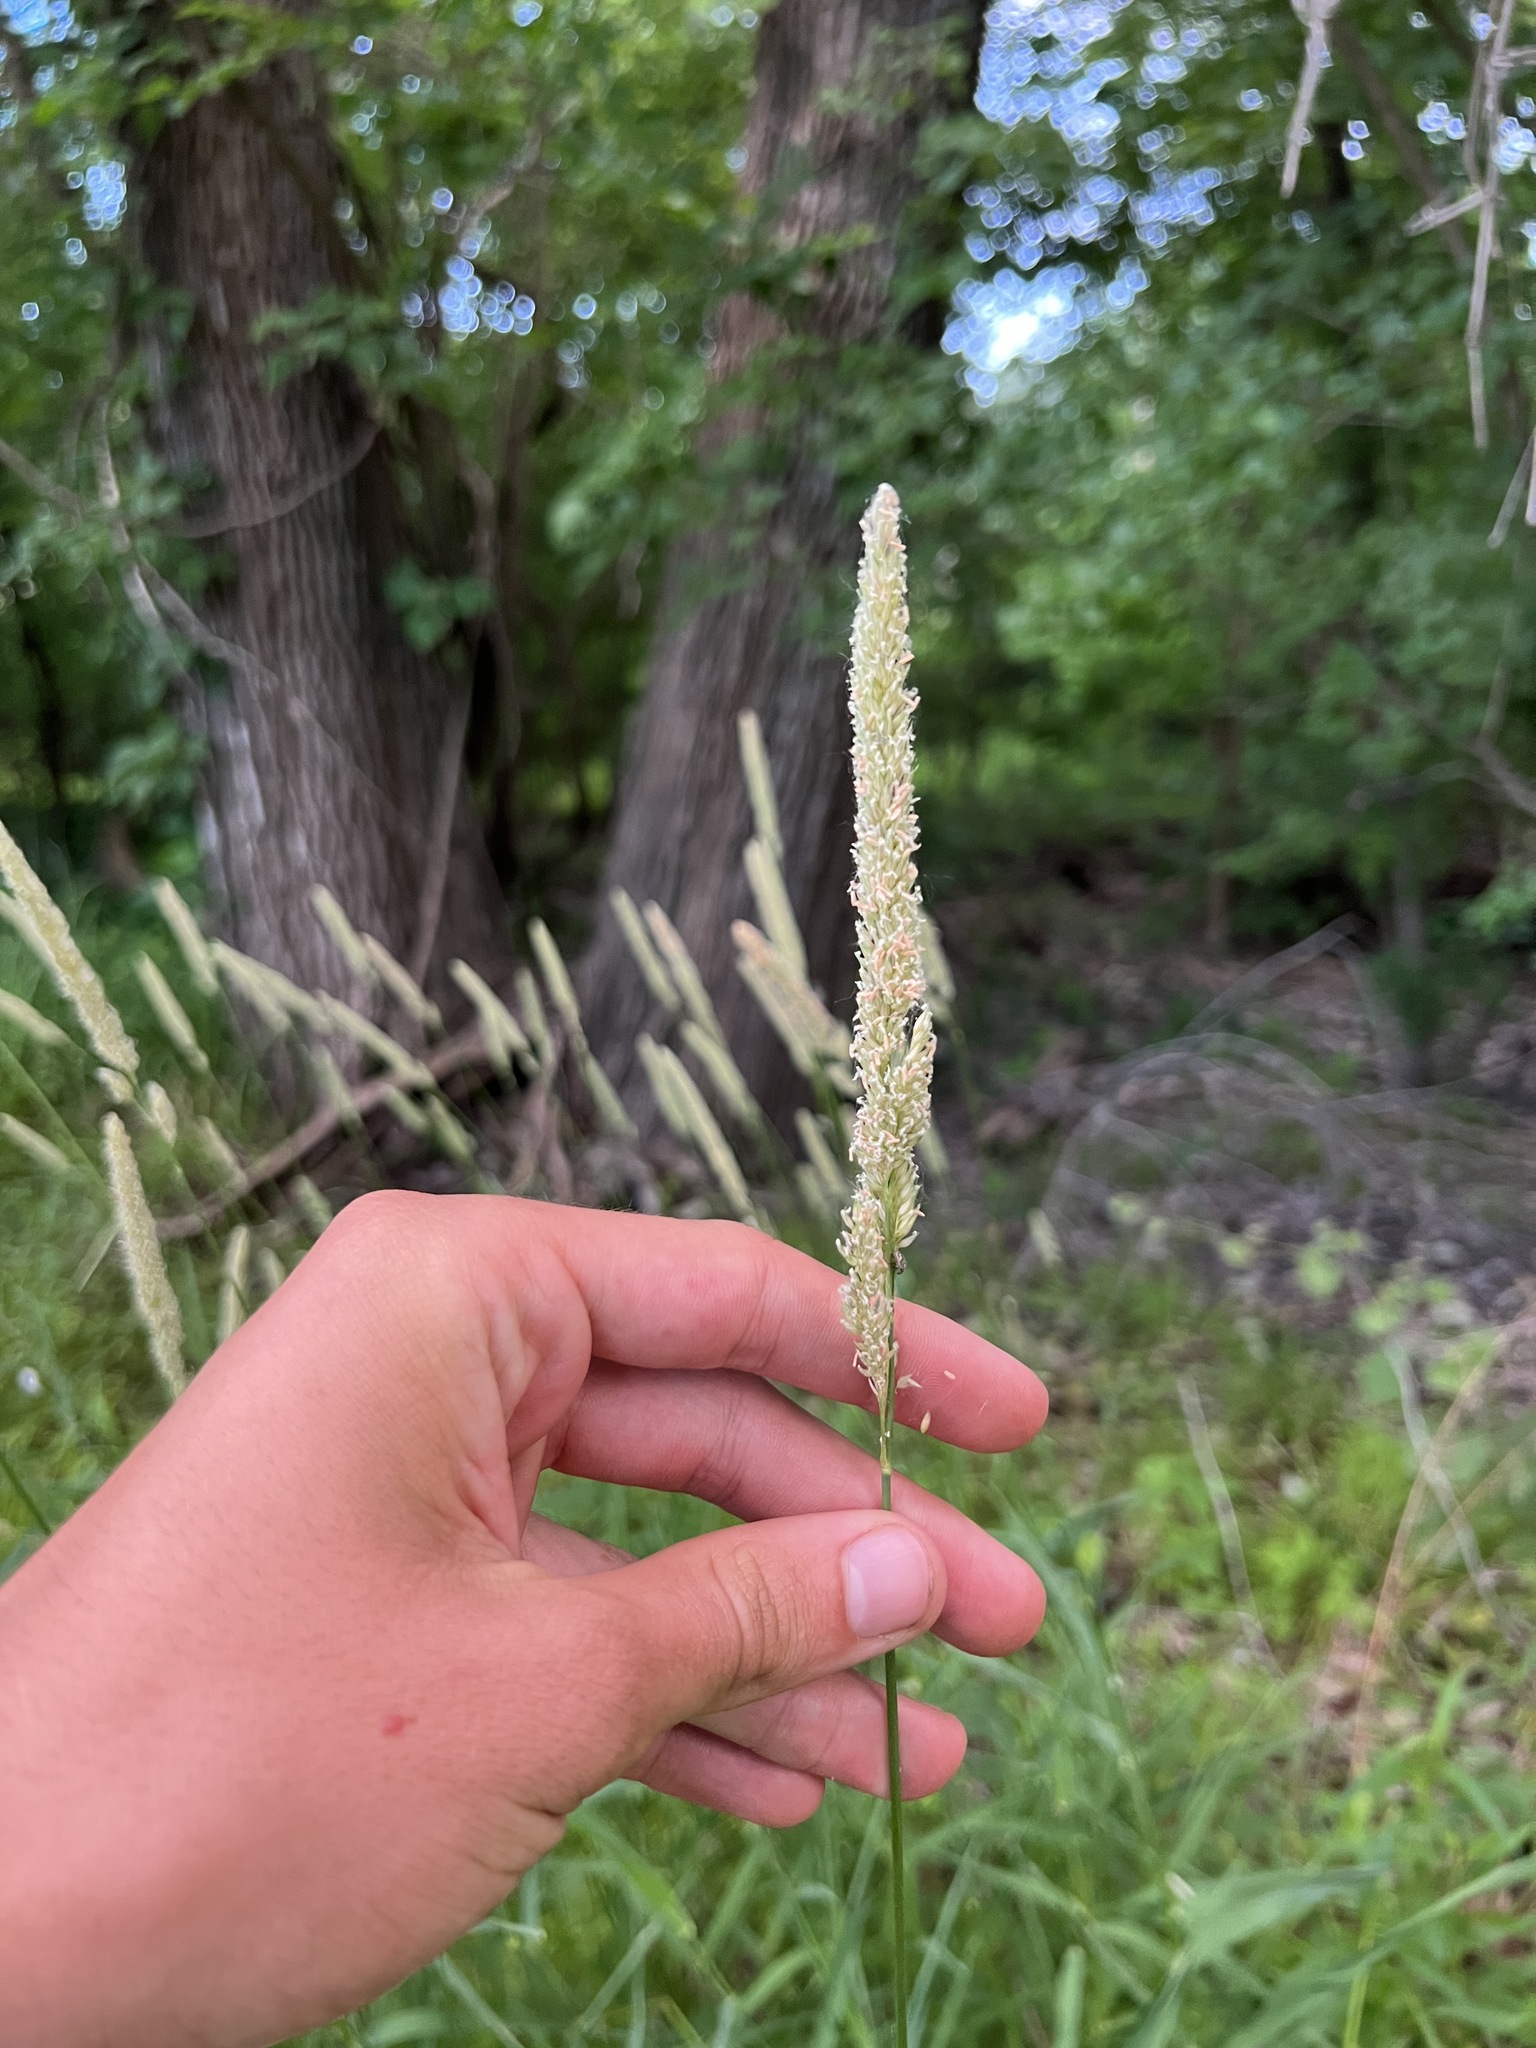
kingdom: Plantae
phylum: Tracheophyta
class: Liliopsida
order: Poales
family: Poaceae
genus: Phleum
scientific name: Phleum pratense
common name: Timothy grass
